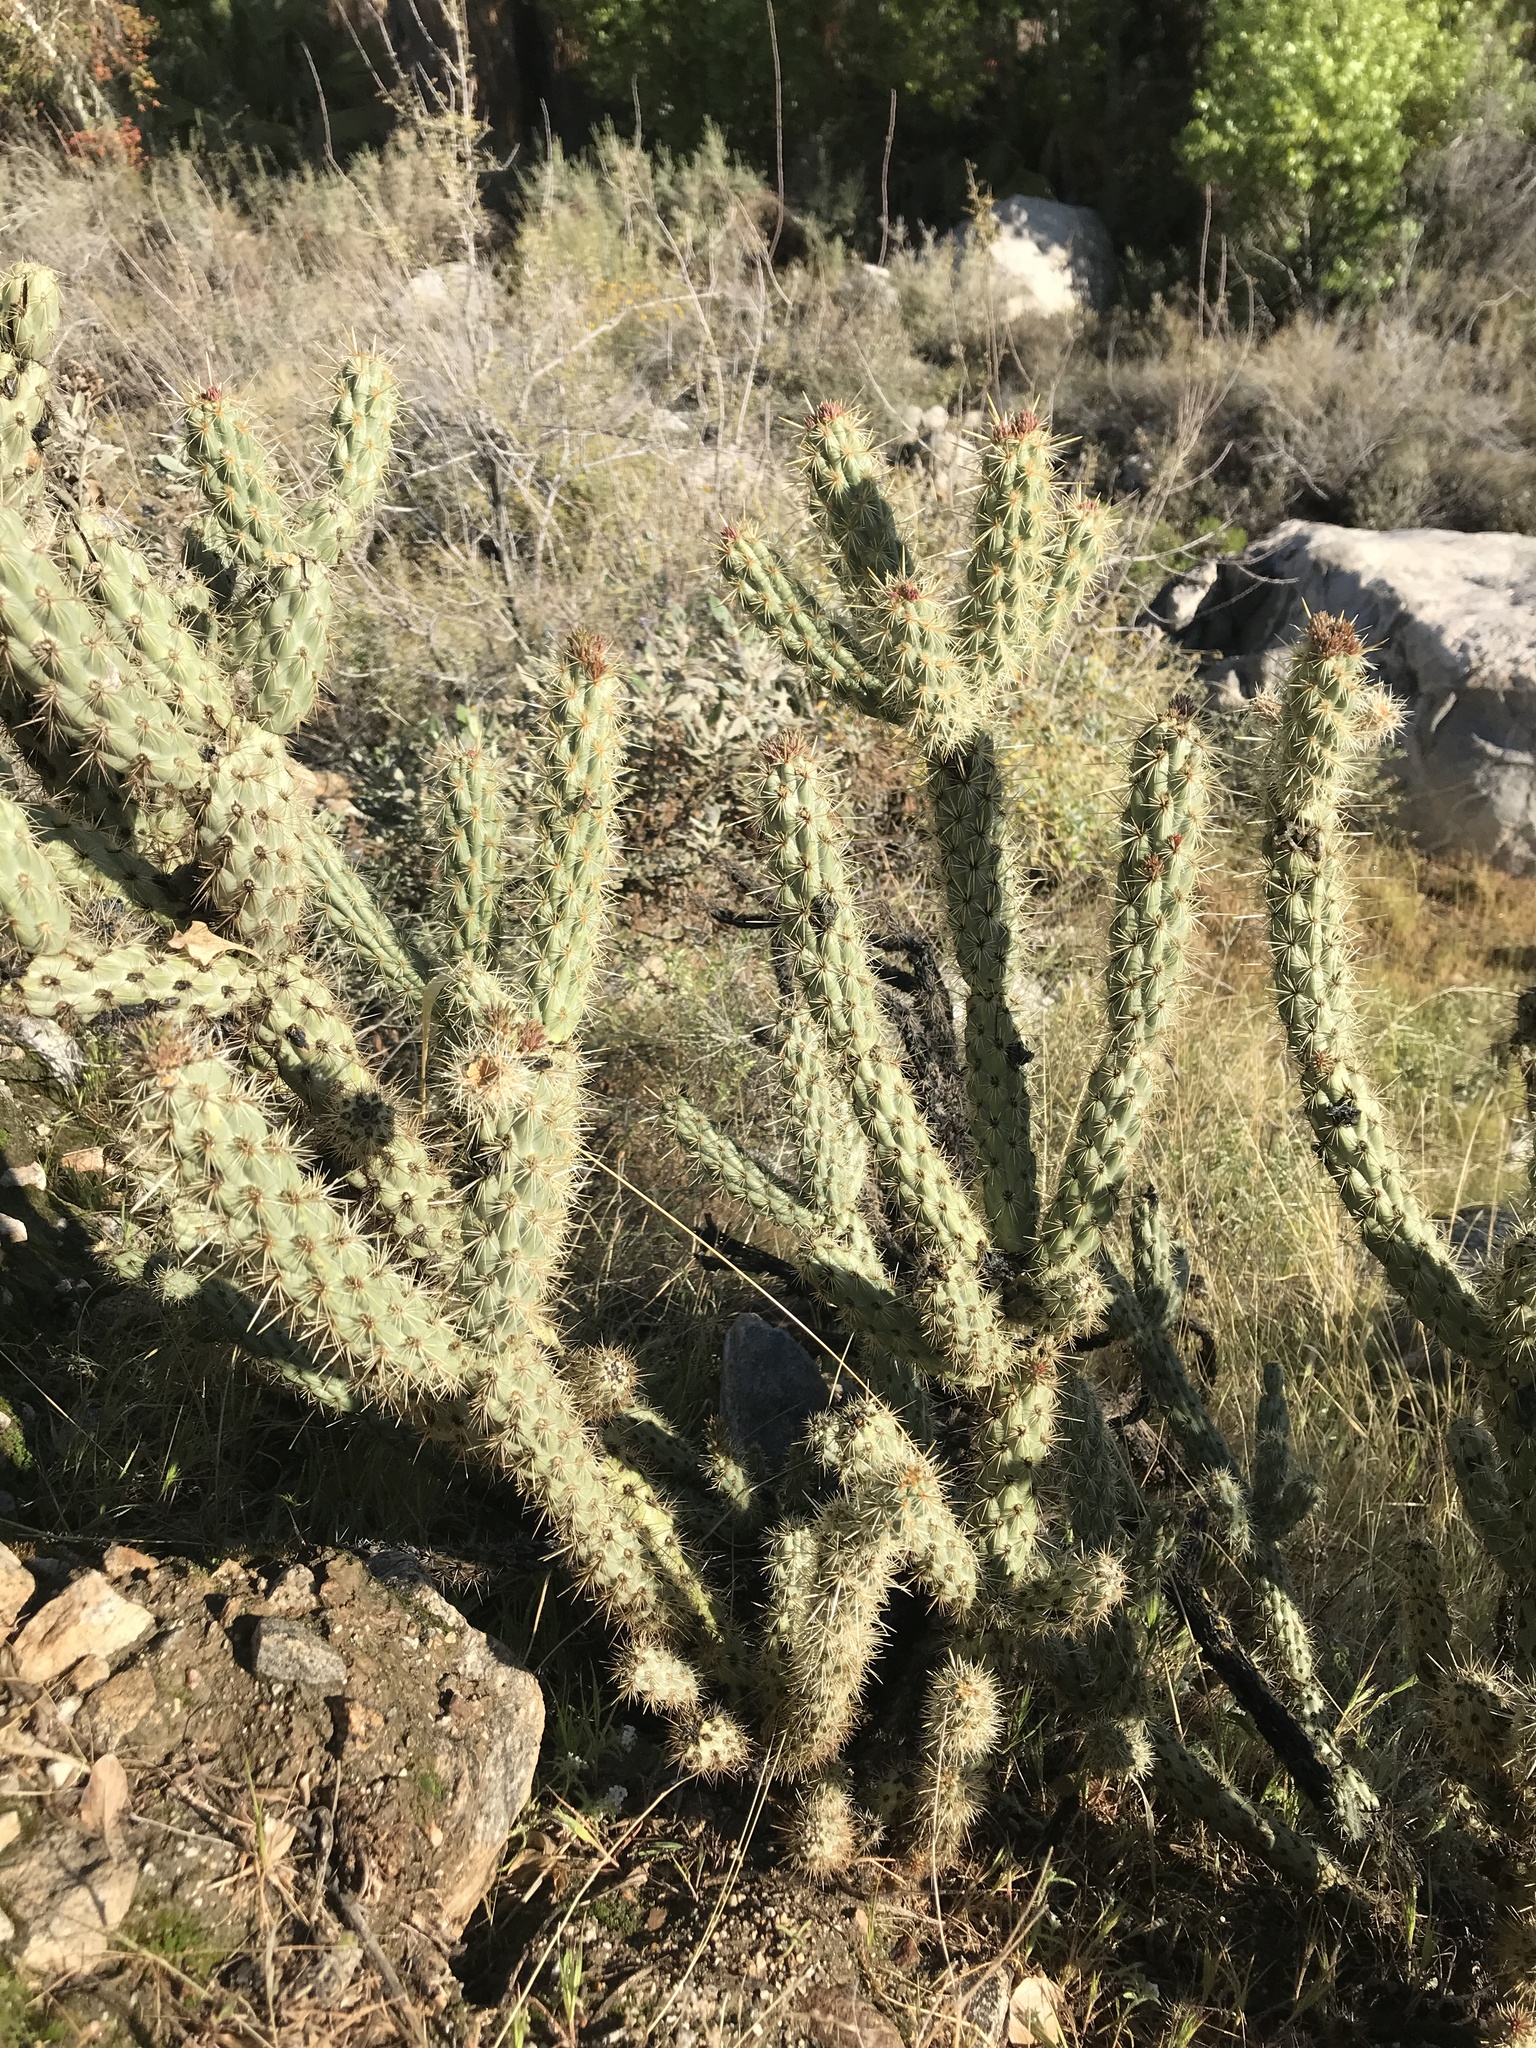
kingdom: Plantae
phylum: Tracheophyta
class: Magnoliopsida
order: Caryophyllales
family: Cactaceae
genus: Cylindropuntia
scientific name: Cylindropuntia ganderi
